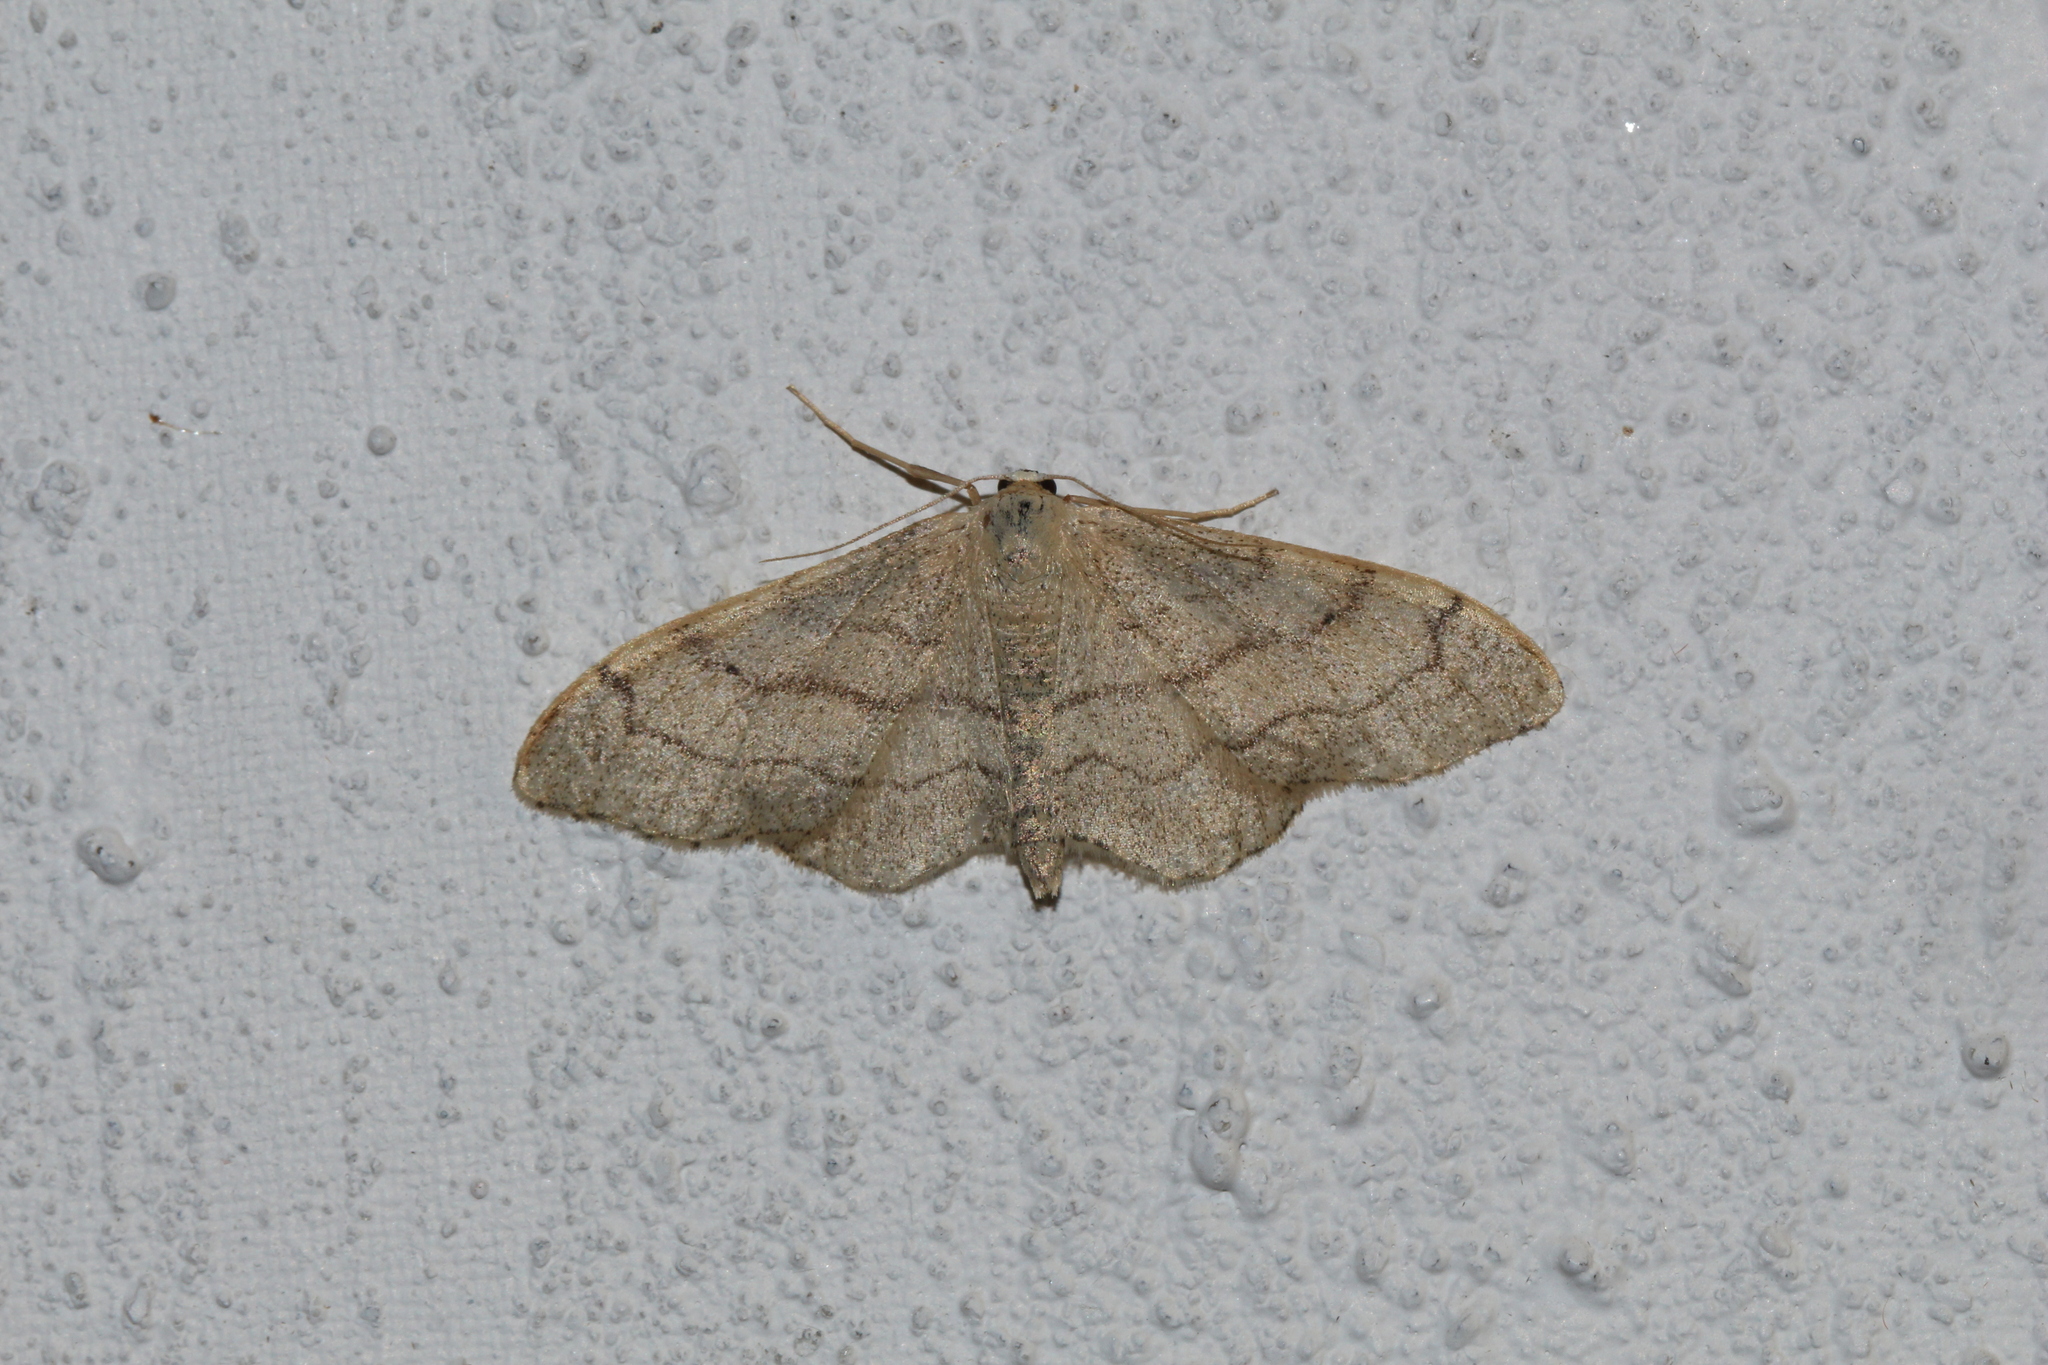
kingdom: Animalia
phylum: Arthropoda
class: Insecta
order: Lepidoptera
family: Geometridae
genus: Idaea
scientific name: Idaea aversata
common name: Riband wave
